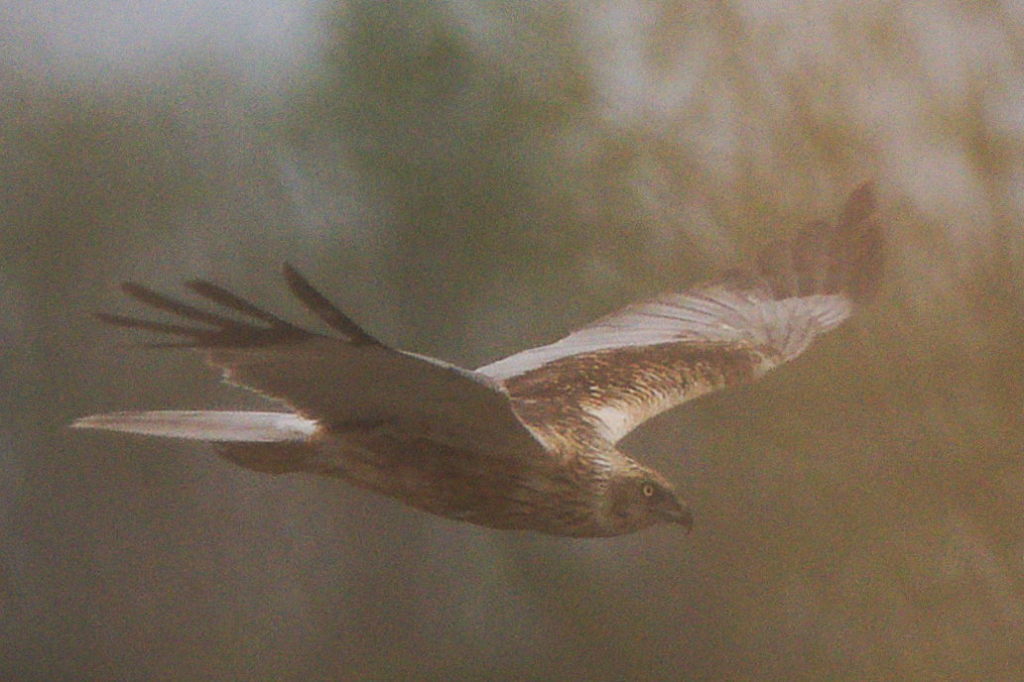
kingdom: Animalia
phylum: Chordata
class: Aves
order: Accipitriformes
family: Accipitridae
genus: Circus
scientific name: Circus aeruginosus
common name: Western marsh harrier
